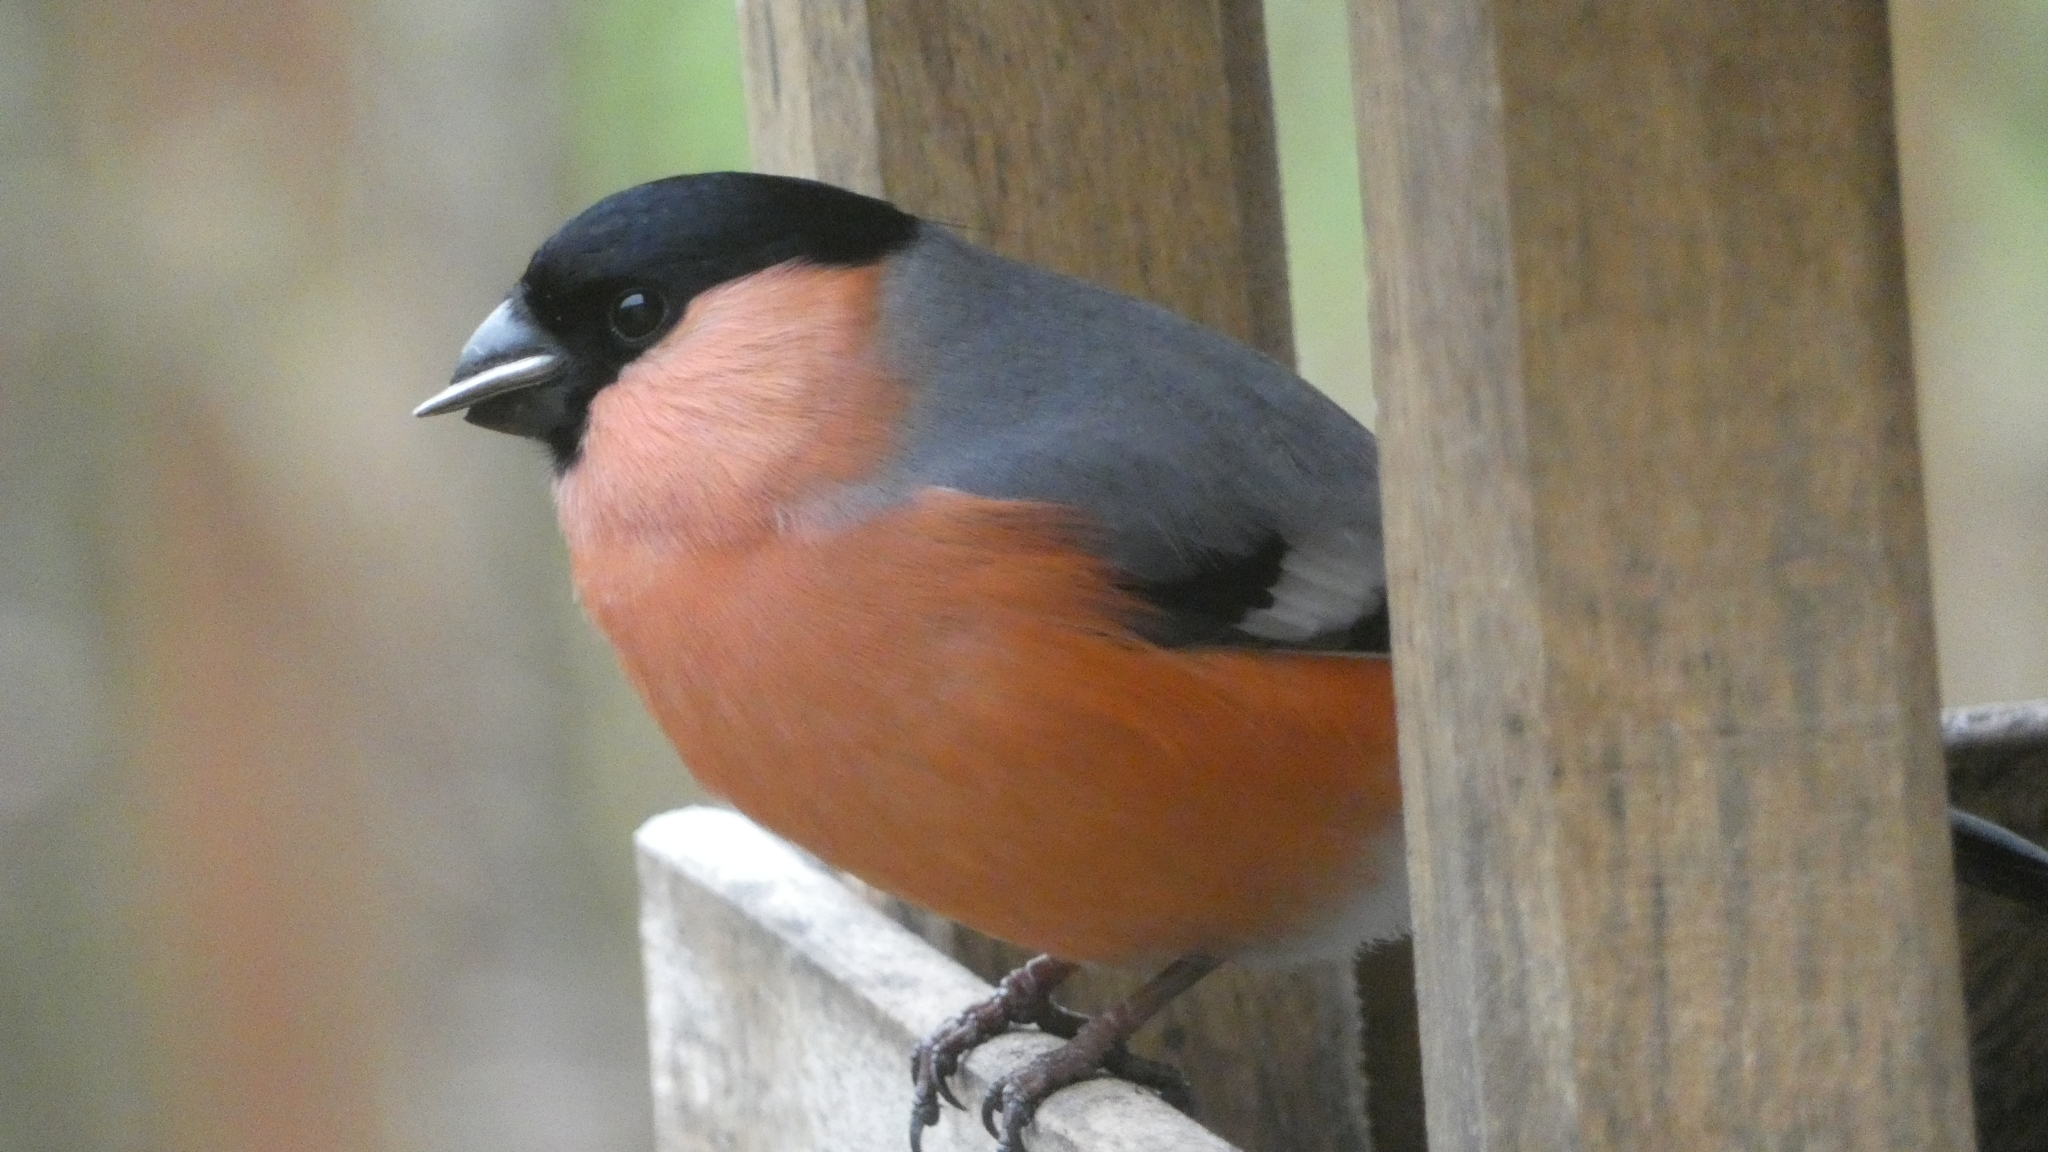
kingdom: Animalia
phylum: Chordata
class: Aves
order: Passeriformes
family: Fringillidae
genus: Pyrrhula
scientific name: Pyrrhula pyrrhula
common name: Eurasian bullfinch
